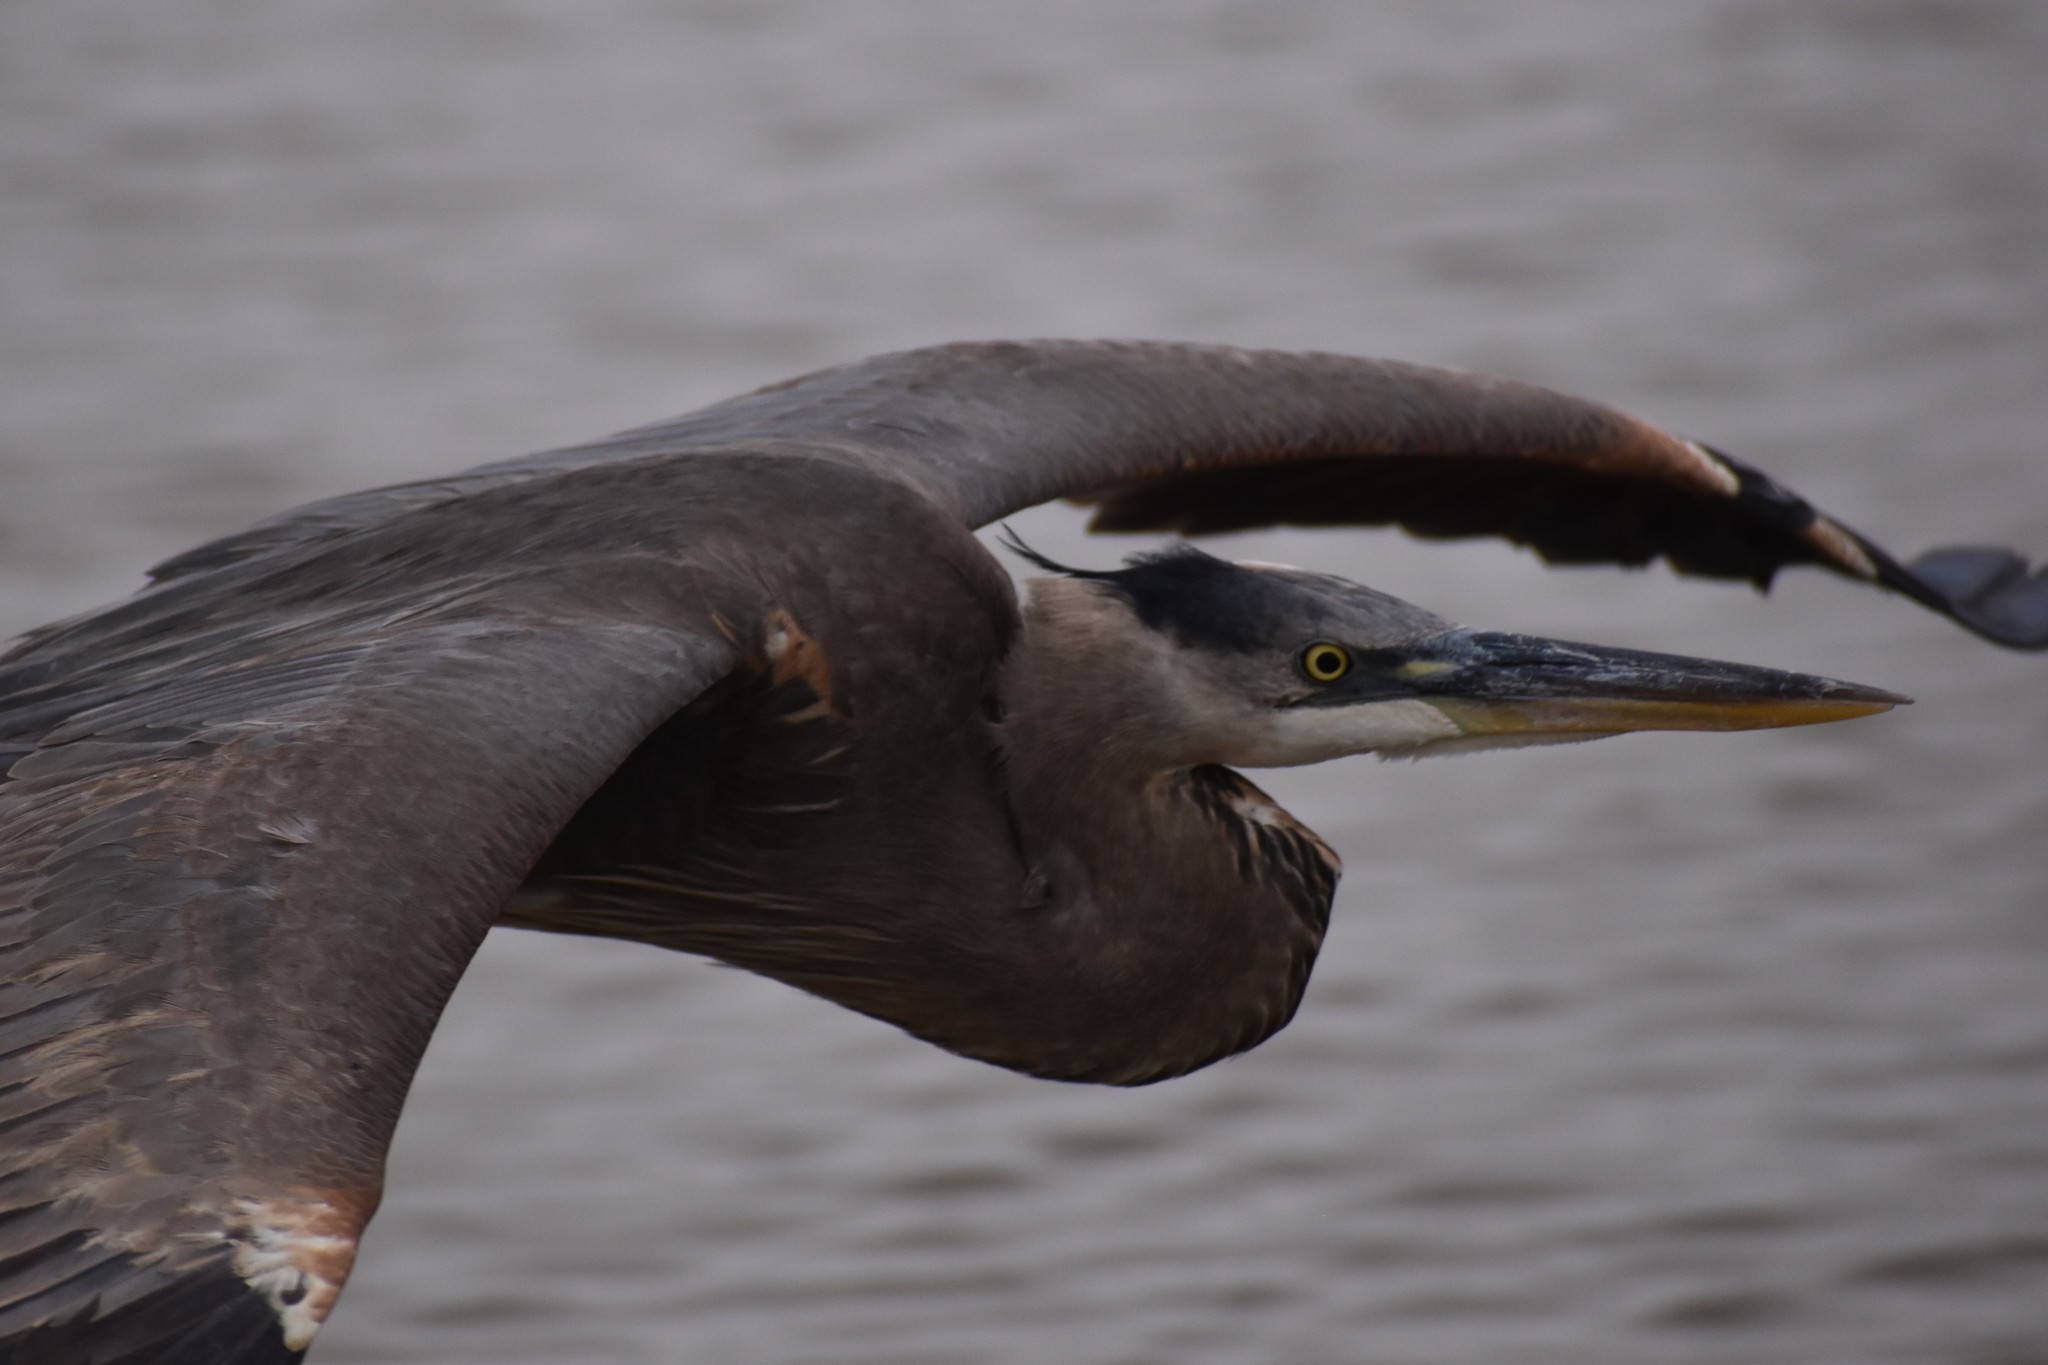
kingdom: Animalia
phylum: Chordata
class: Aves
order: Pelecaniformes
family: Ardeidae
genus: Ardea
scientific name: Ardea herodias
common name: Great blue heron
